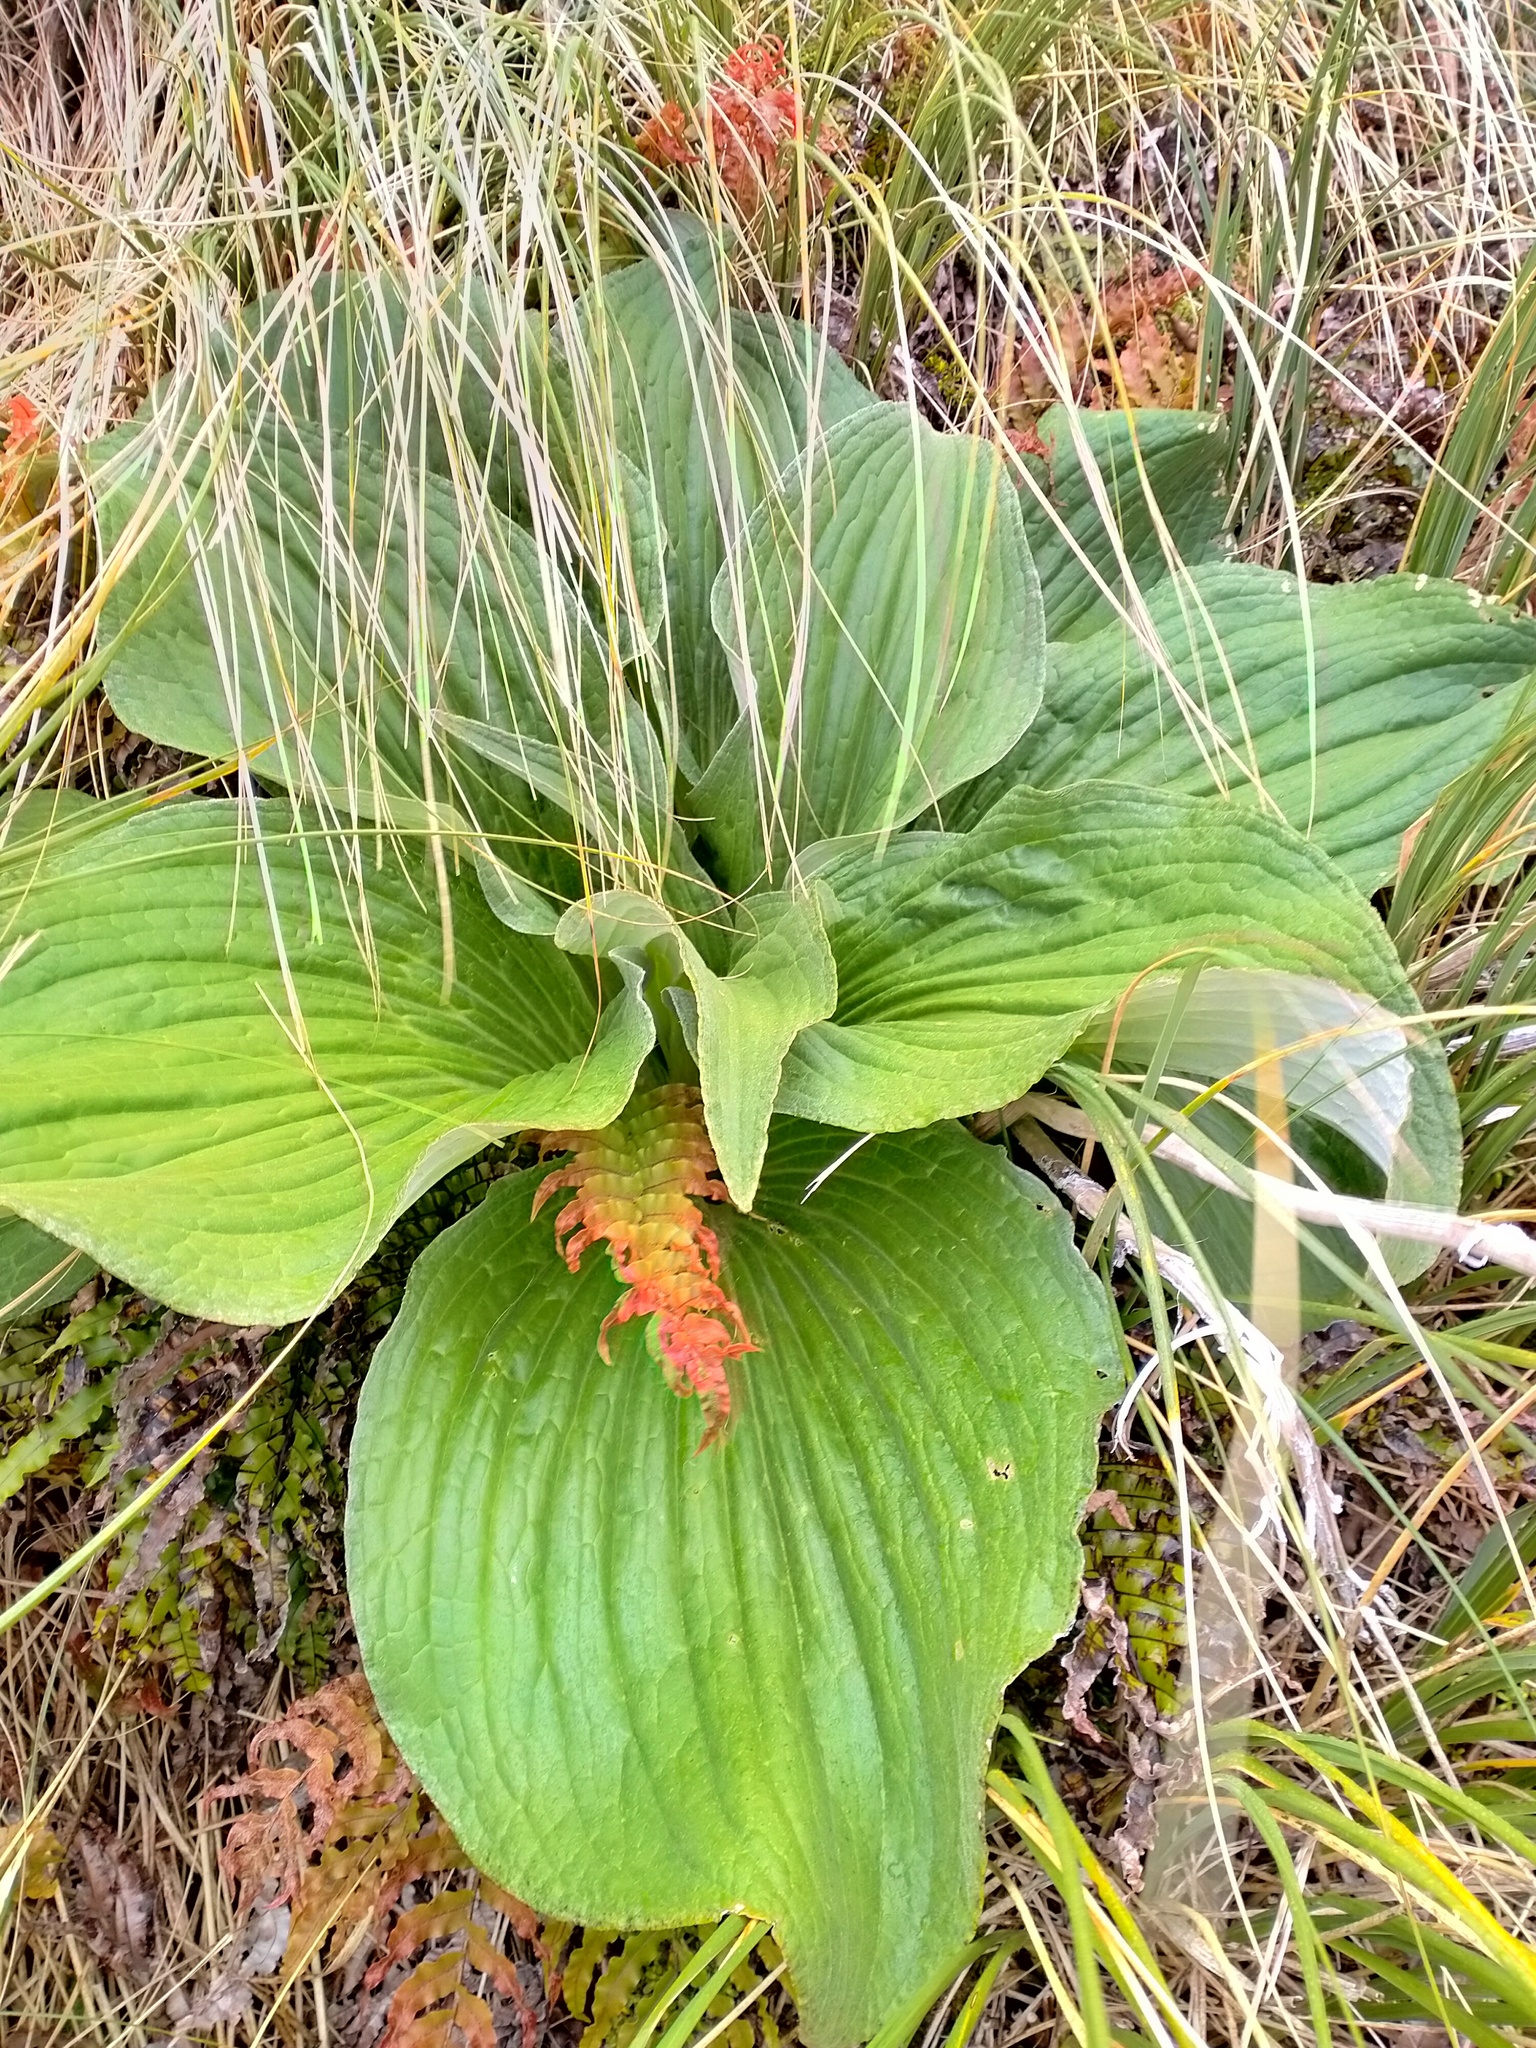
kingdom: Plantae
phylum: Tracheophyta
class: Magnoliopsida
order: Asterales
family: Asteraceae
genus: Pleurophyllum
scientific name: Pleurophyllum speciosum
